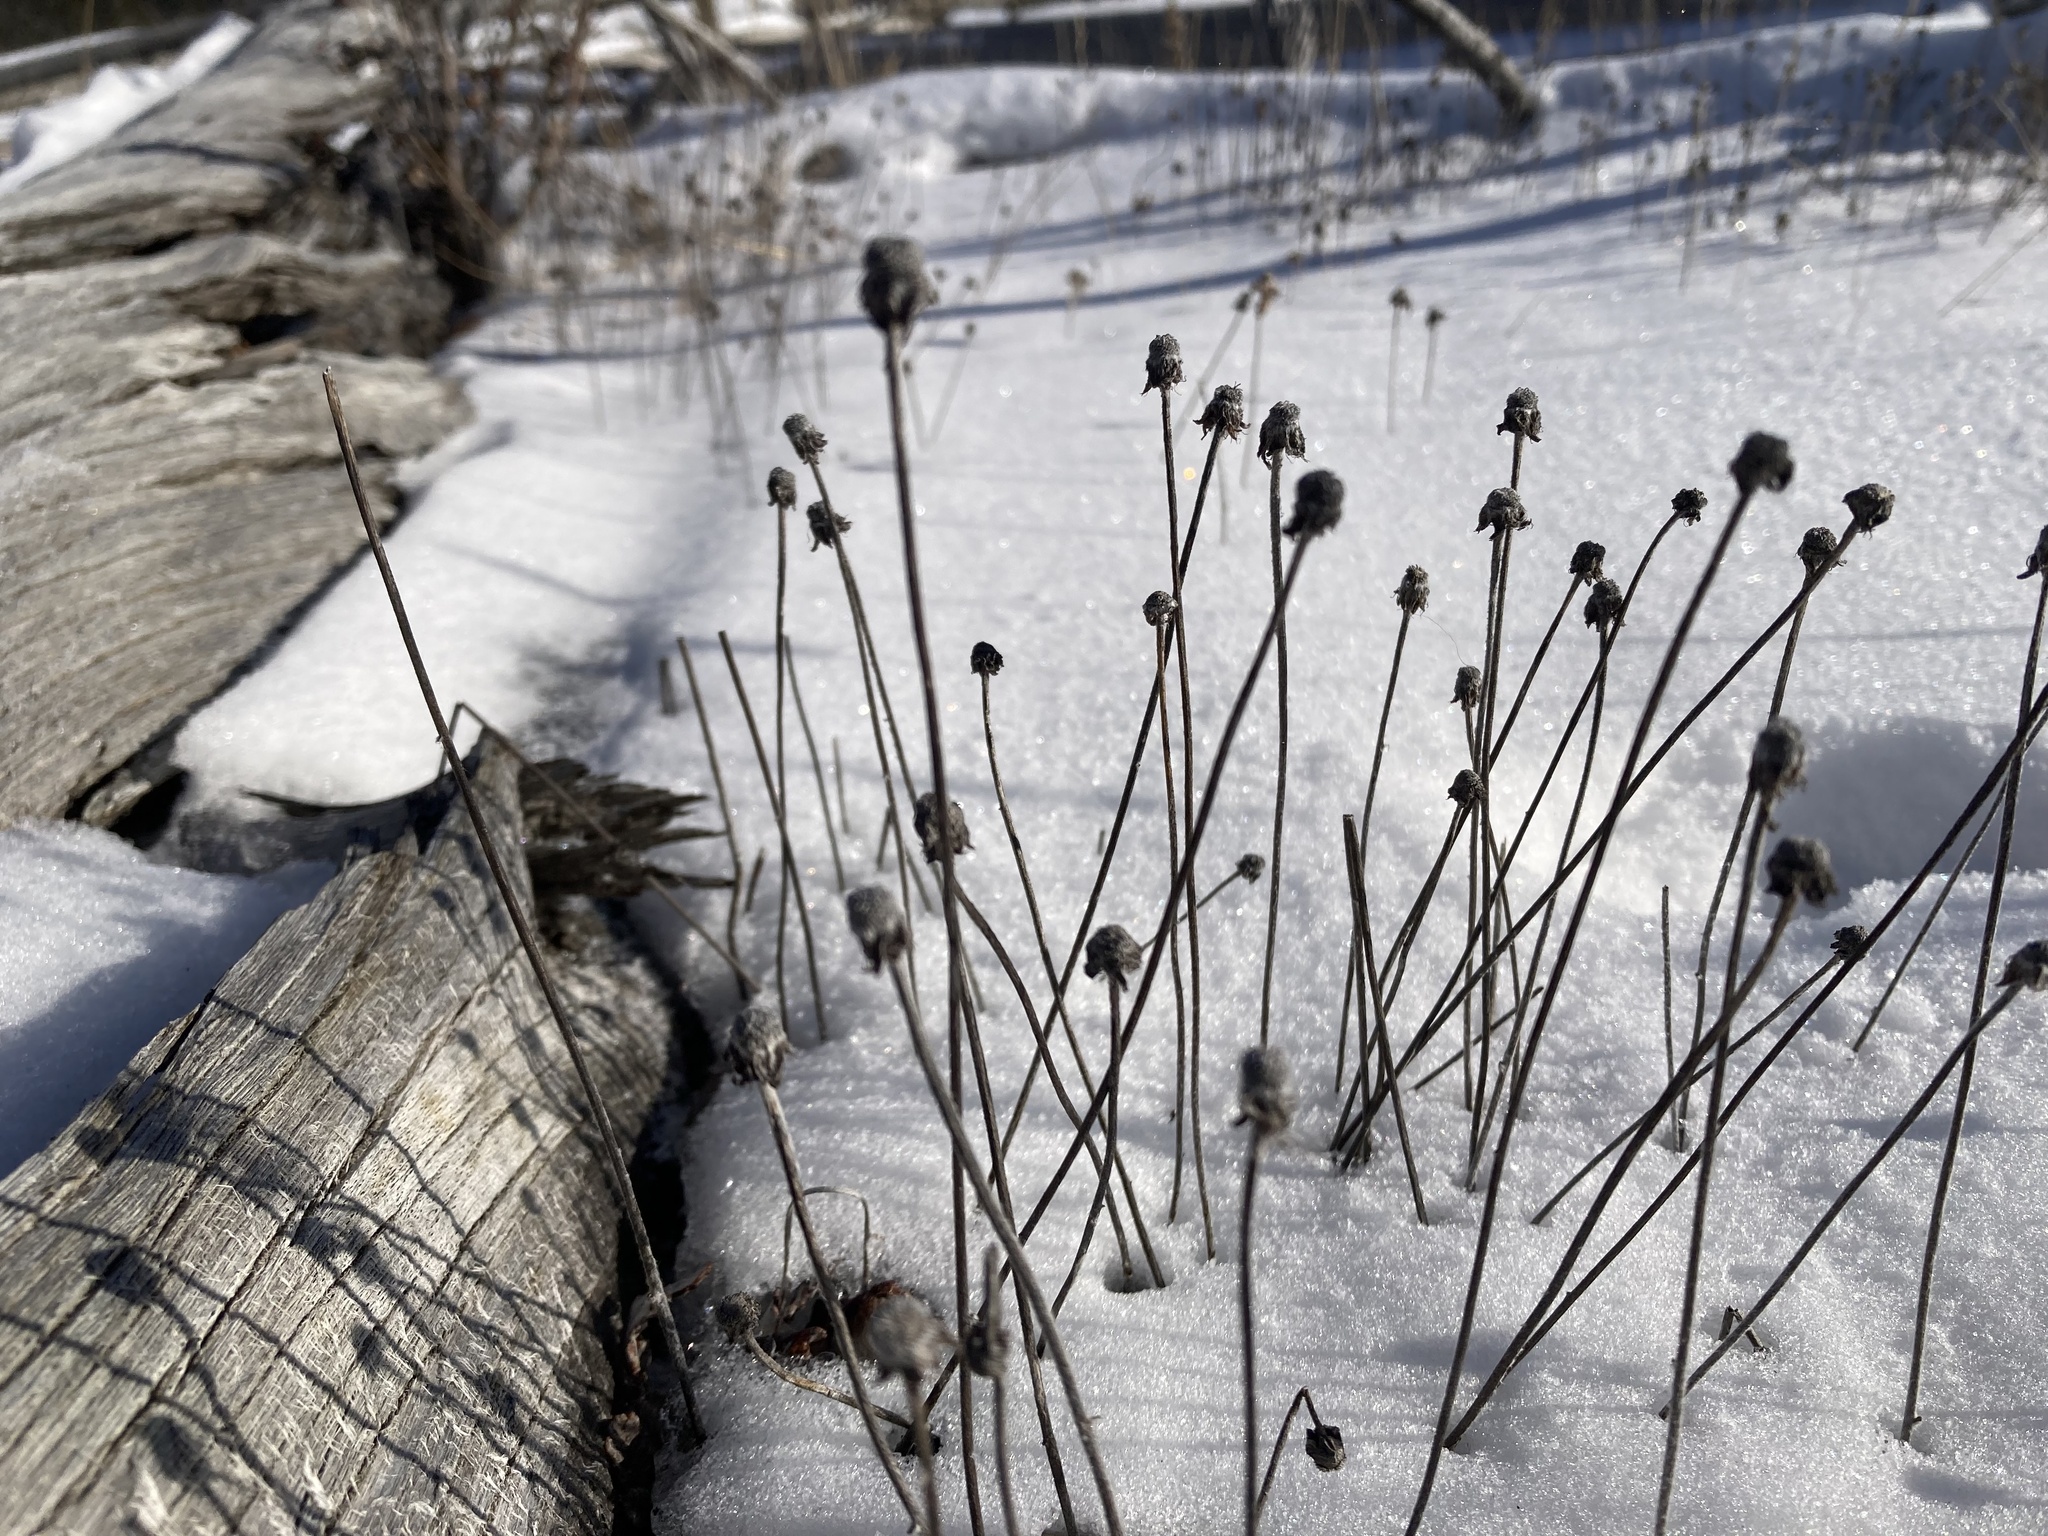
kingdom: Plantae
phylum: Tracheophyta
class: Magnoliopsida
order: Rosales
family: Rosaceae
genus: Dryas
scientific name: Dryas drummondii
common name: Drummond's dryad
